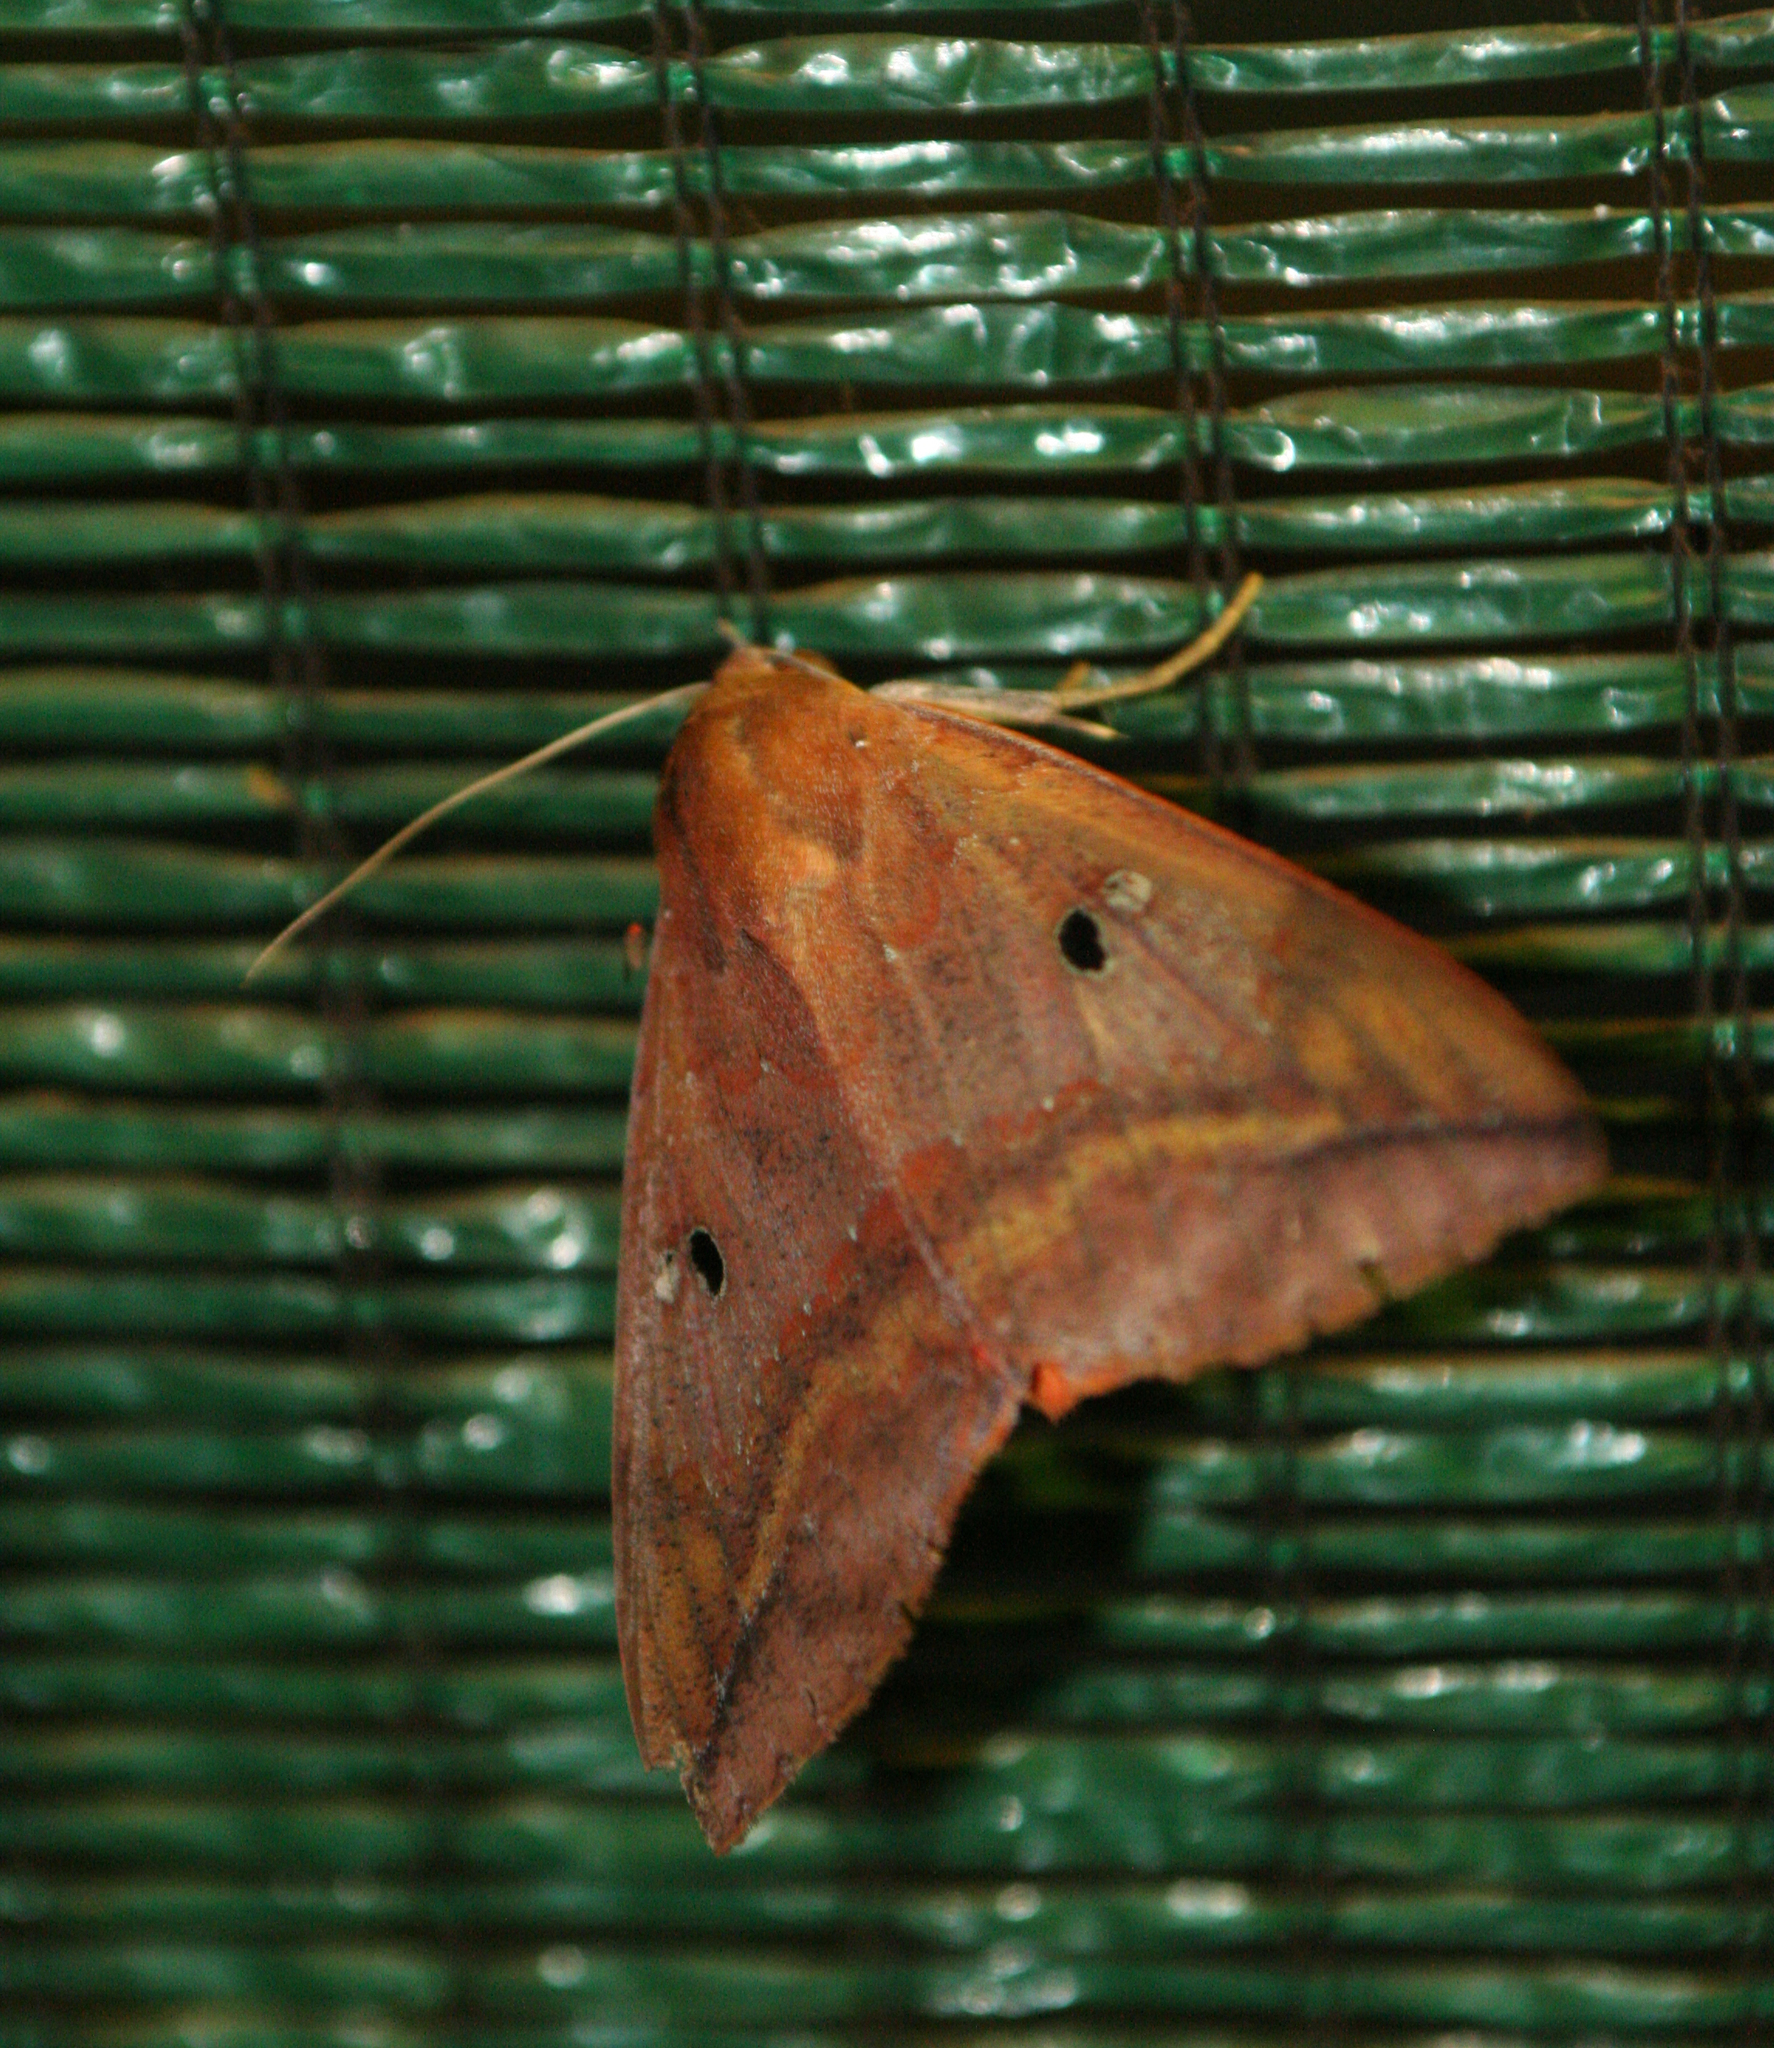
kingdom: Animalia
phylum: Arthropoda
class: Insecta
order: Lepidoptera
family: Erebidae
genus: Thyas
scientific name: Thyas honesta
